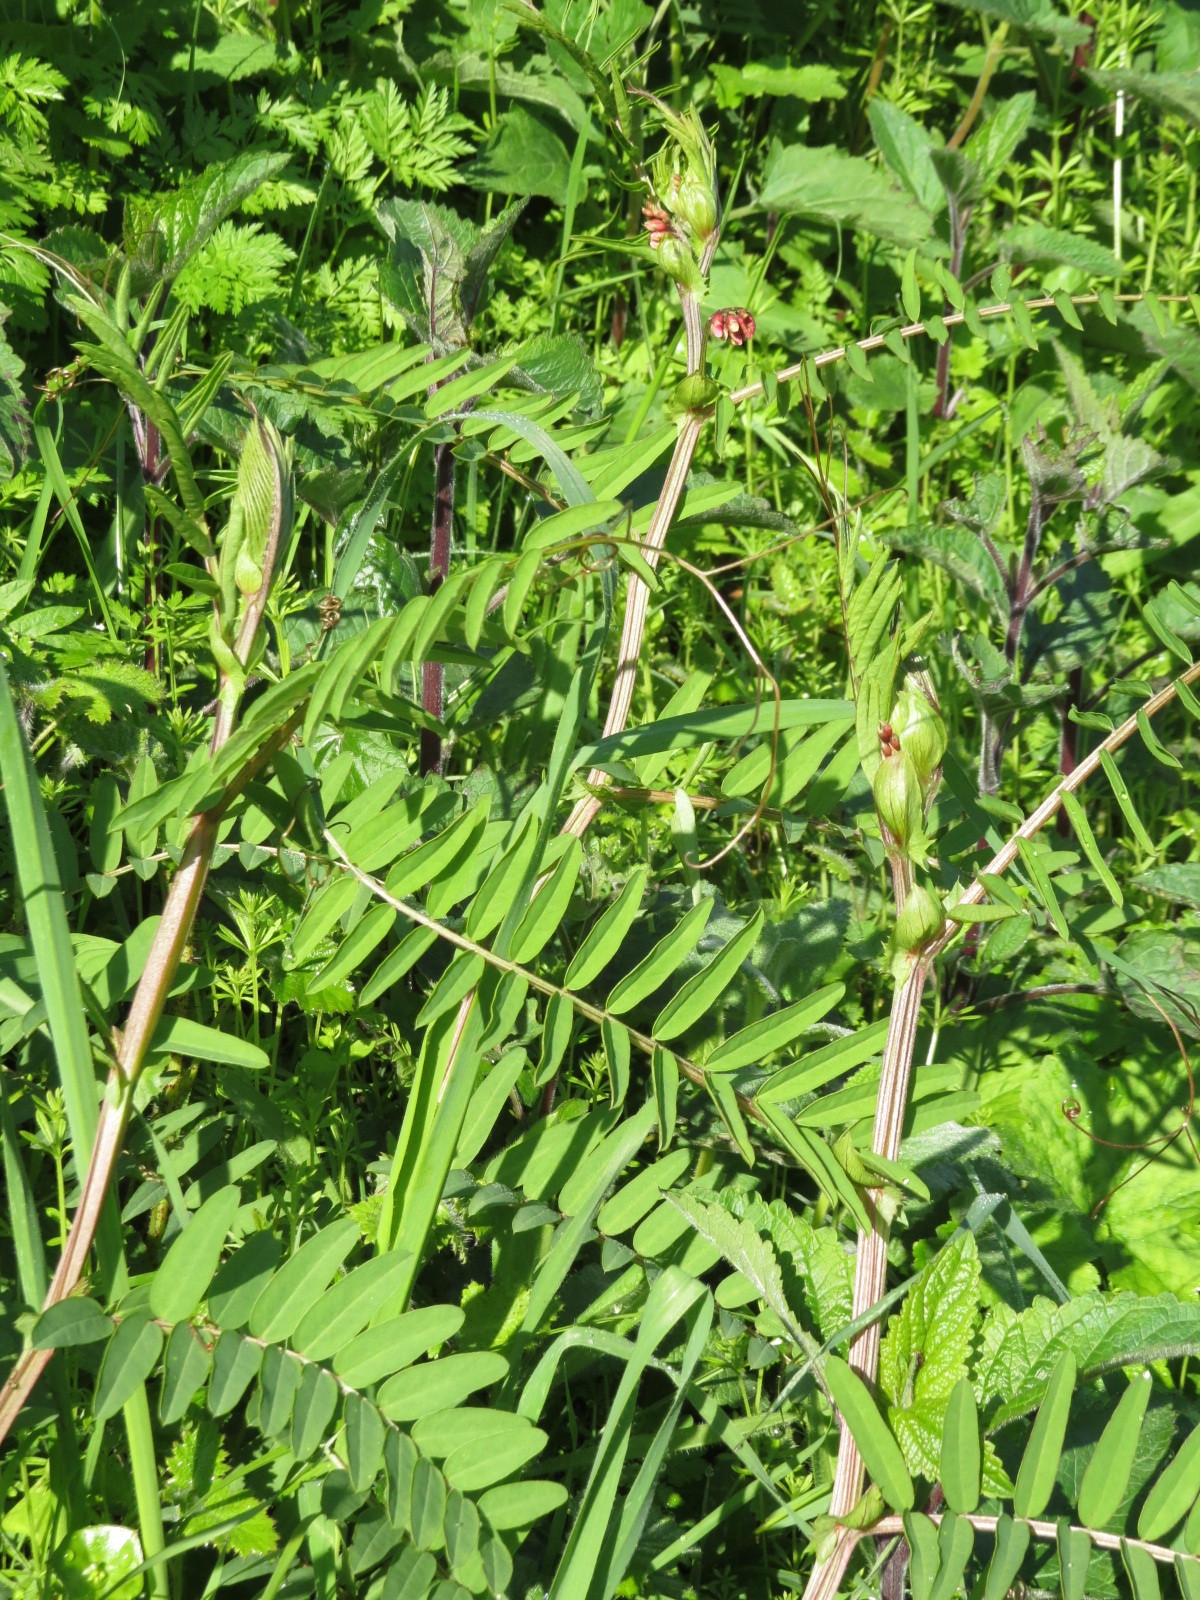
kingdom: Plantae
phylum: Tracheophyta
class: Magnoliopsida
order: Fabales
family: Fabaceae
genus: Vicia
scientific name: Vicia
